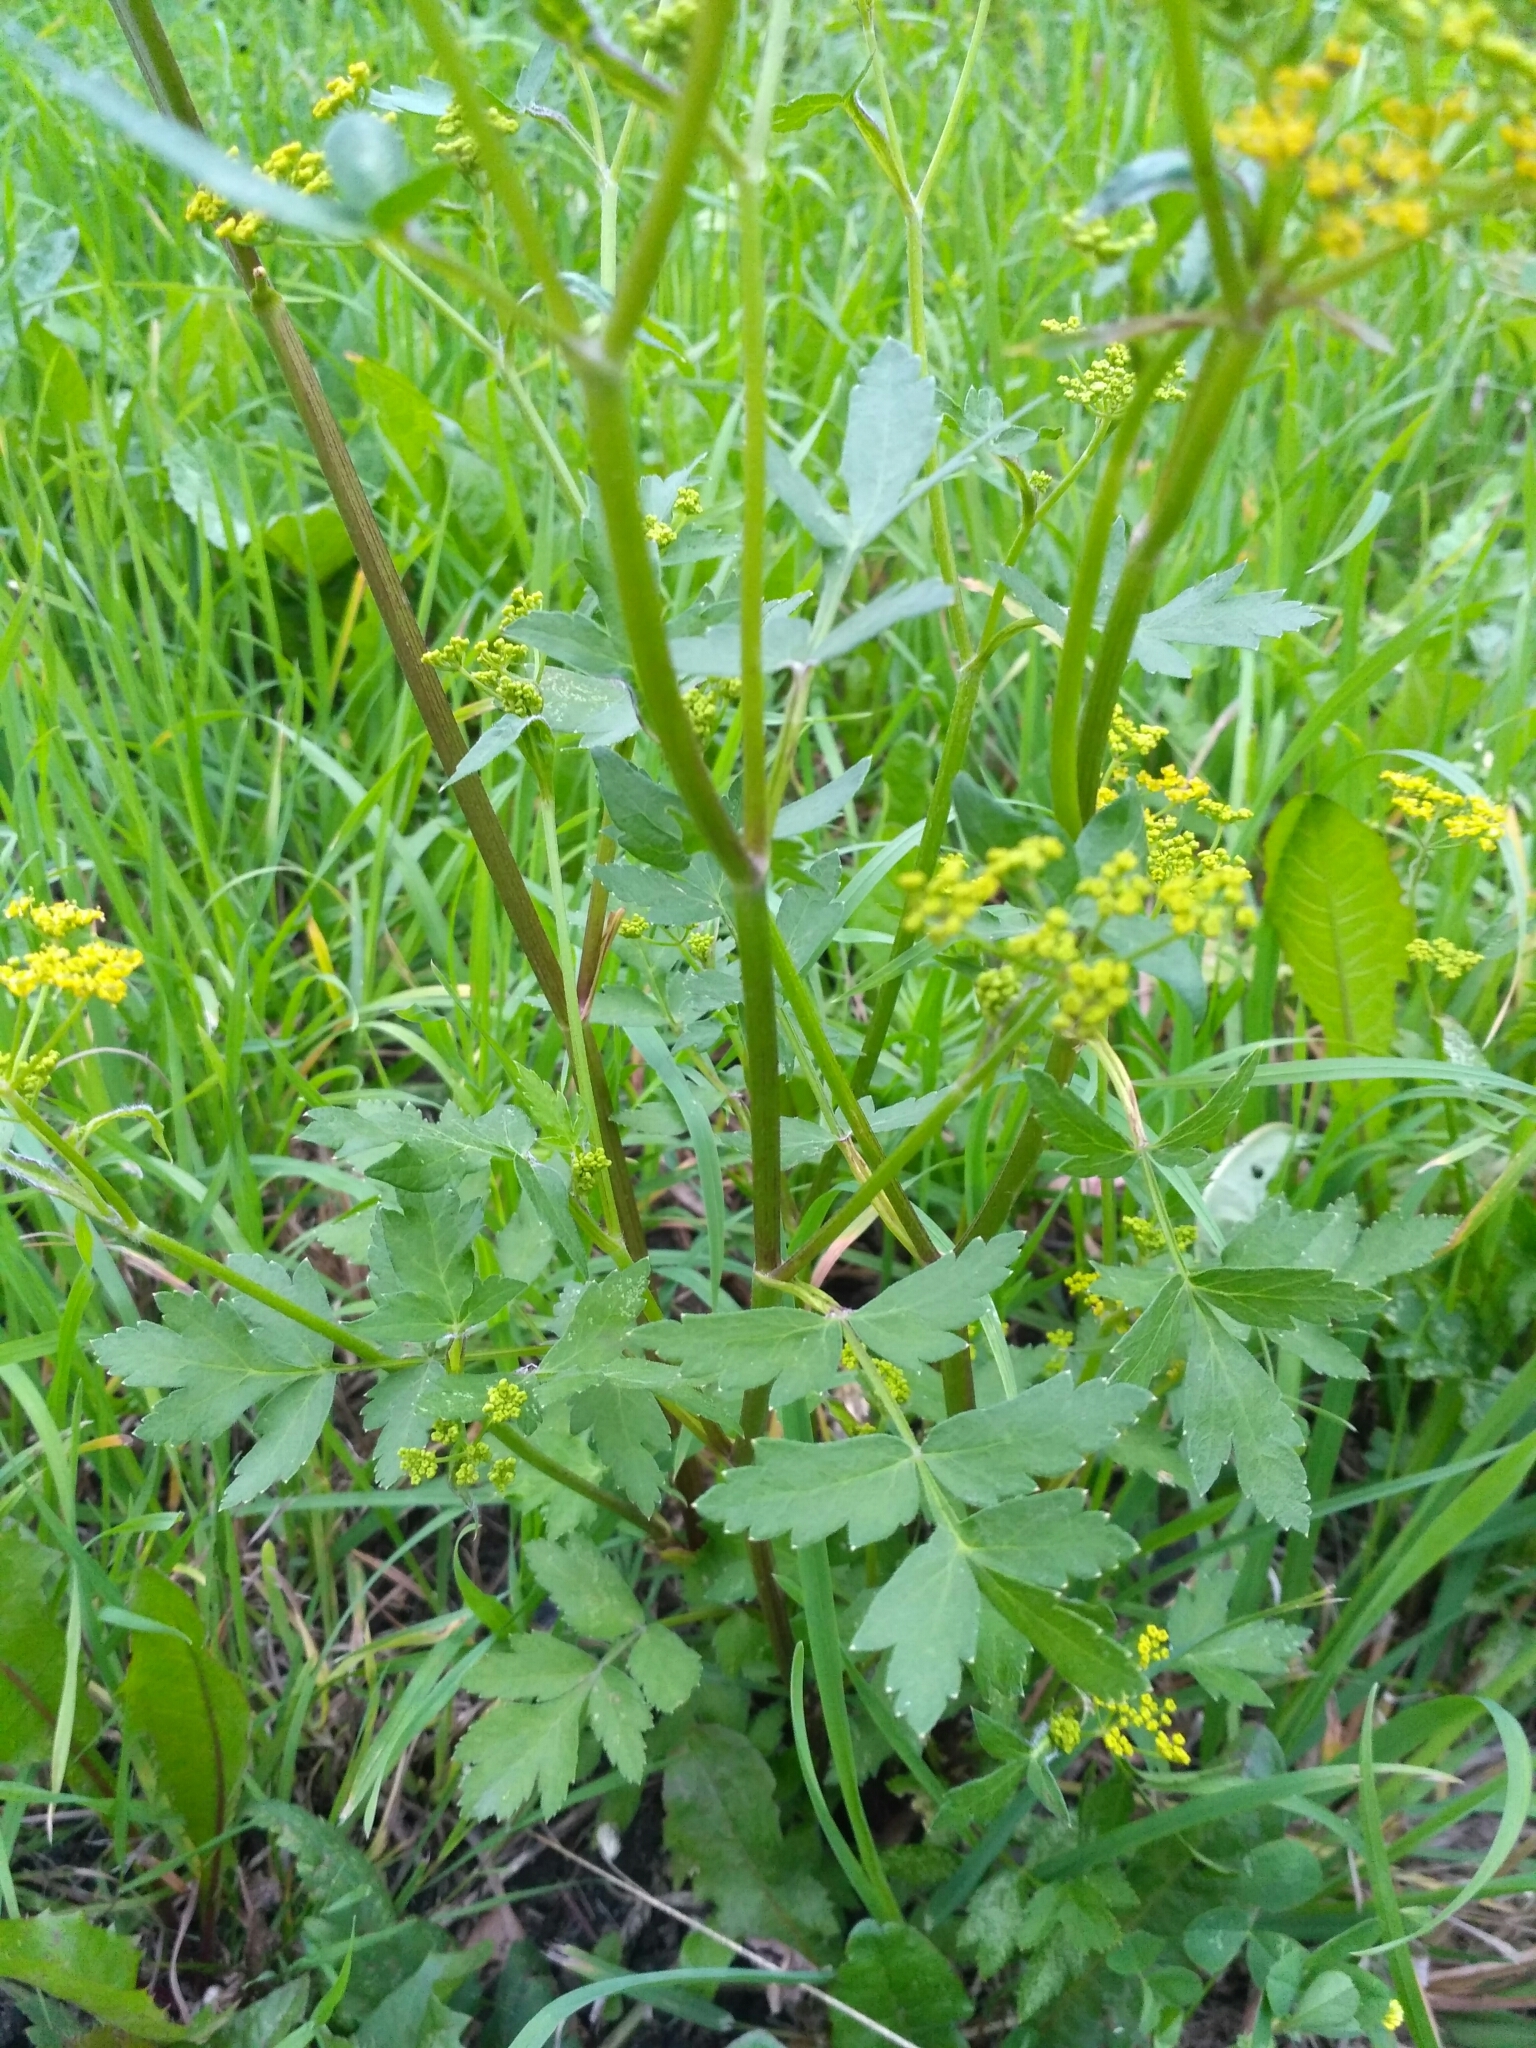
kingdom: Plantae
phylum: Tracheophyta
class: Magnoliopsida
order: Apiales
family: Apiaceae
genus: Pastinaca
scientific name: Pastinaca sativa
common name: Wild parsnip
